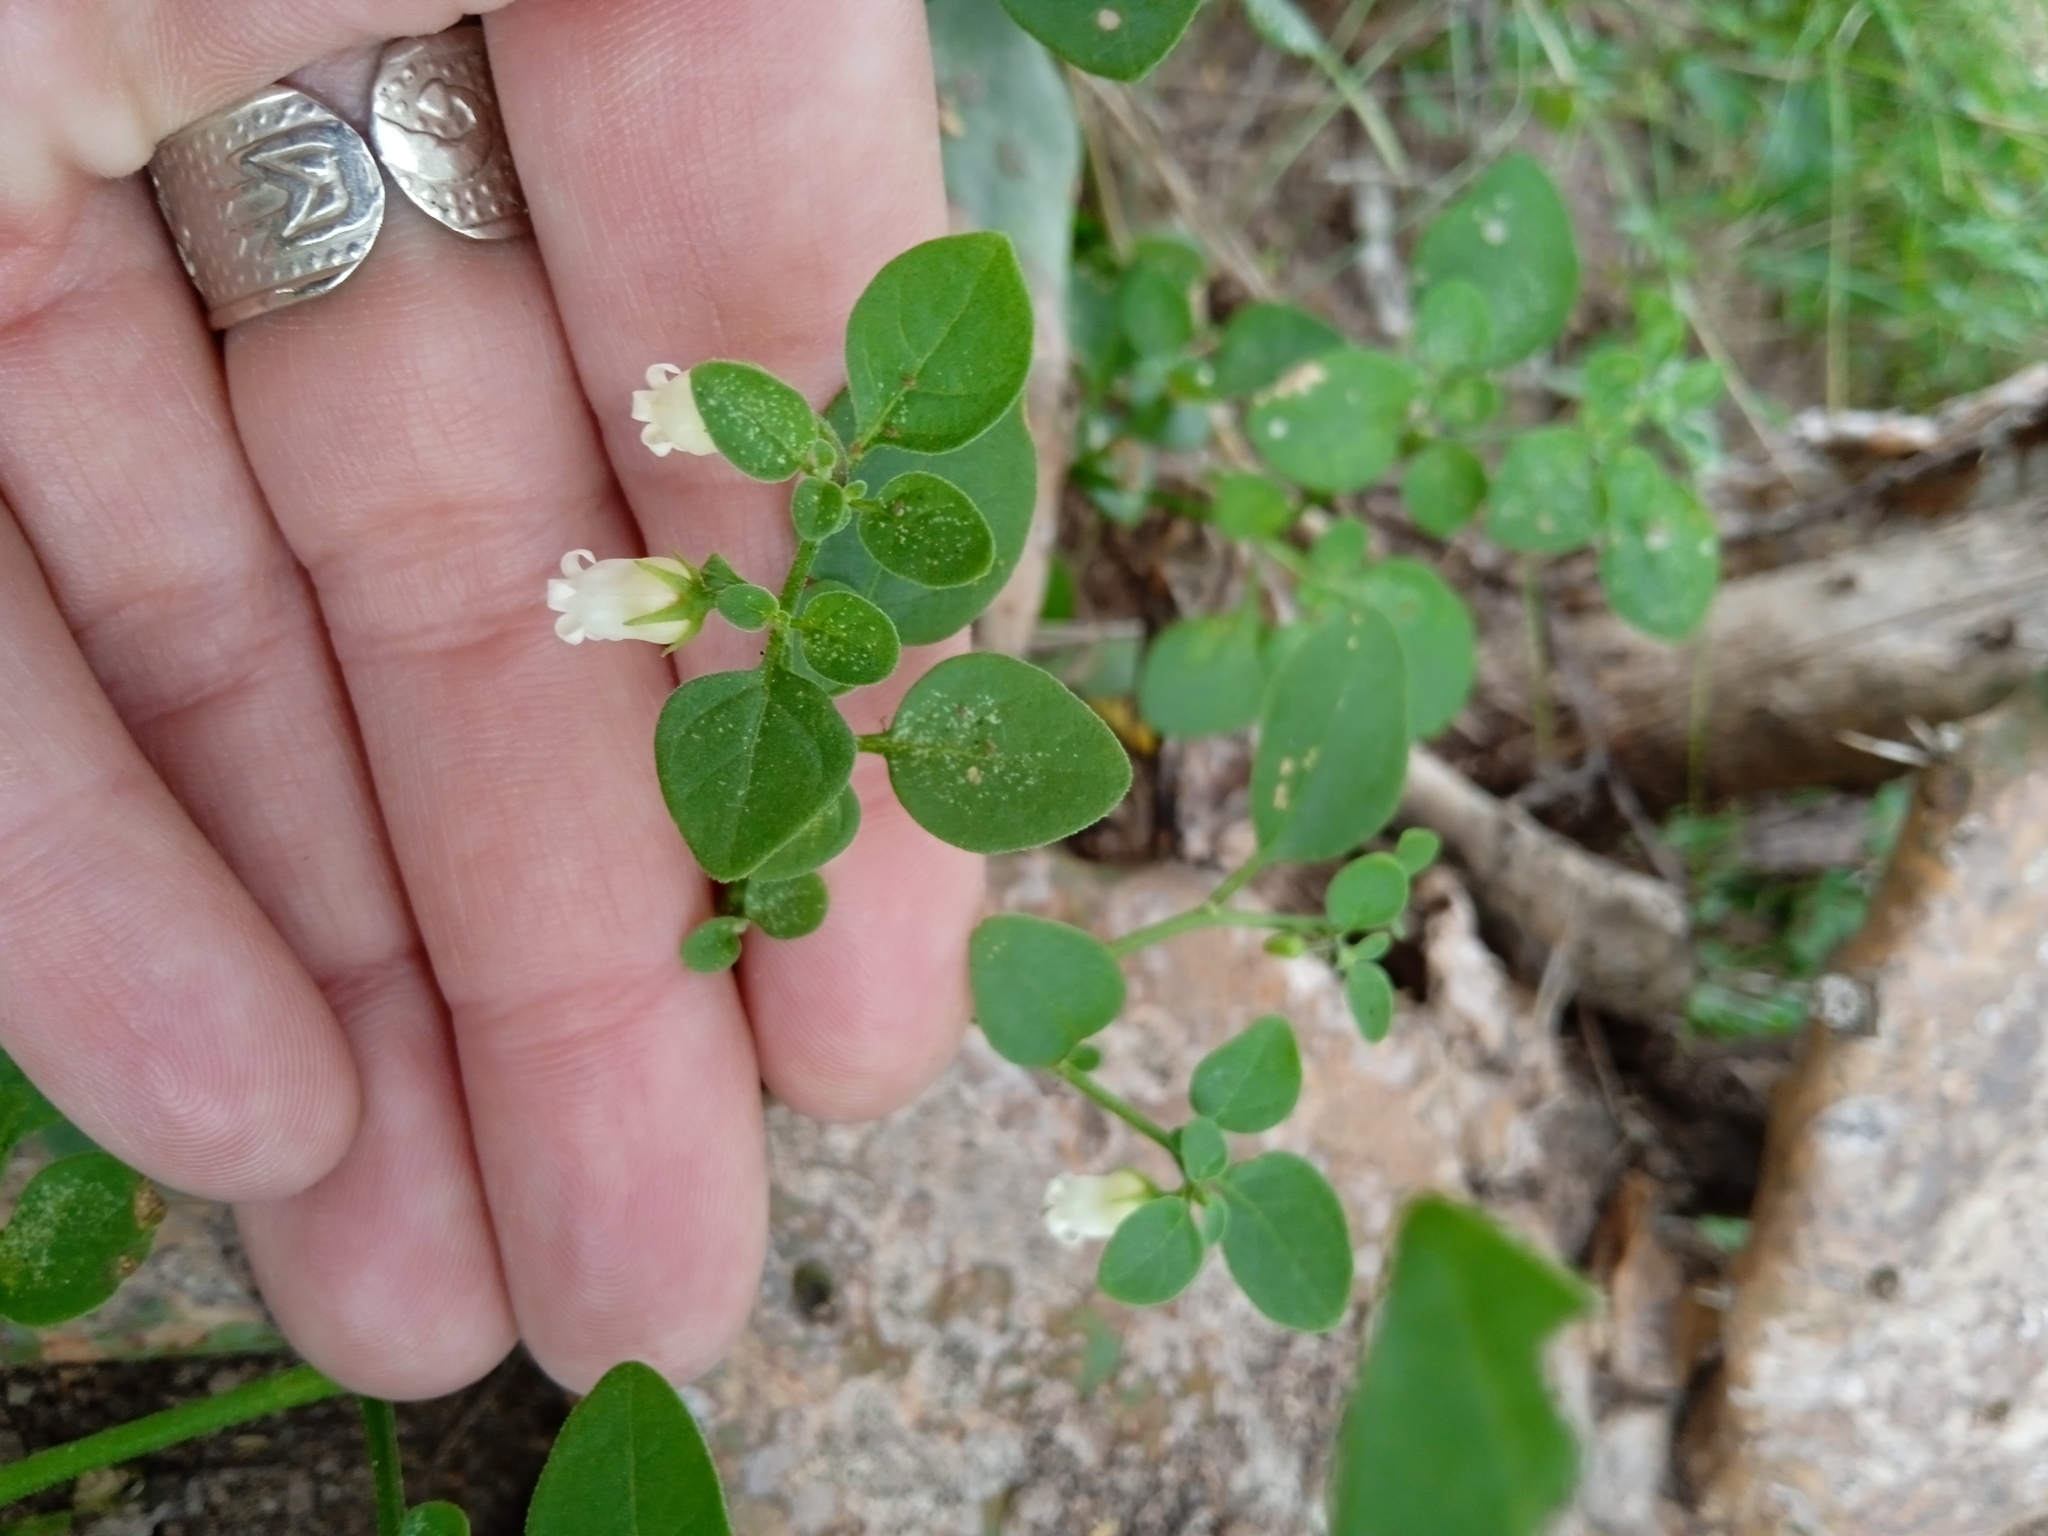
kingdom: Plantae
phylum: Tracheophyta
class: Magnoliopsida
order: Solanales
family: Solanaceae
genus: Salpichroa
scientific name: Salpichroa origanifolia
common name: Lily-of-the-valley-vine
